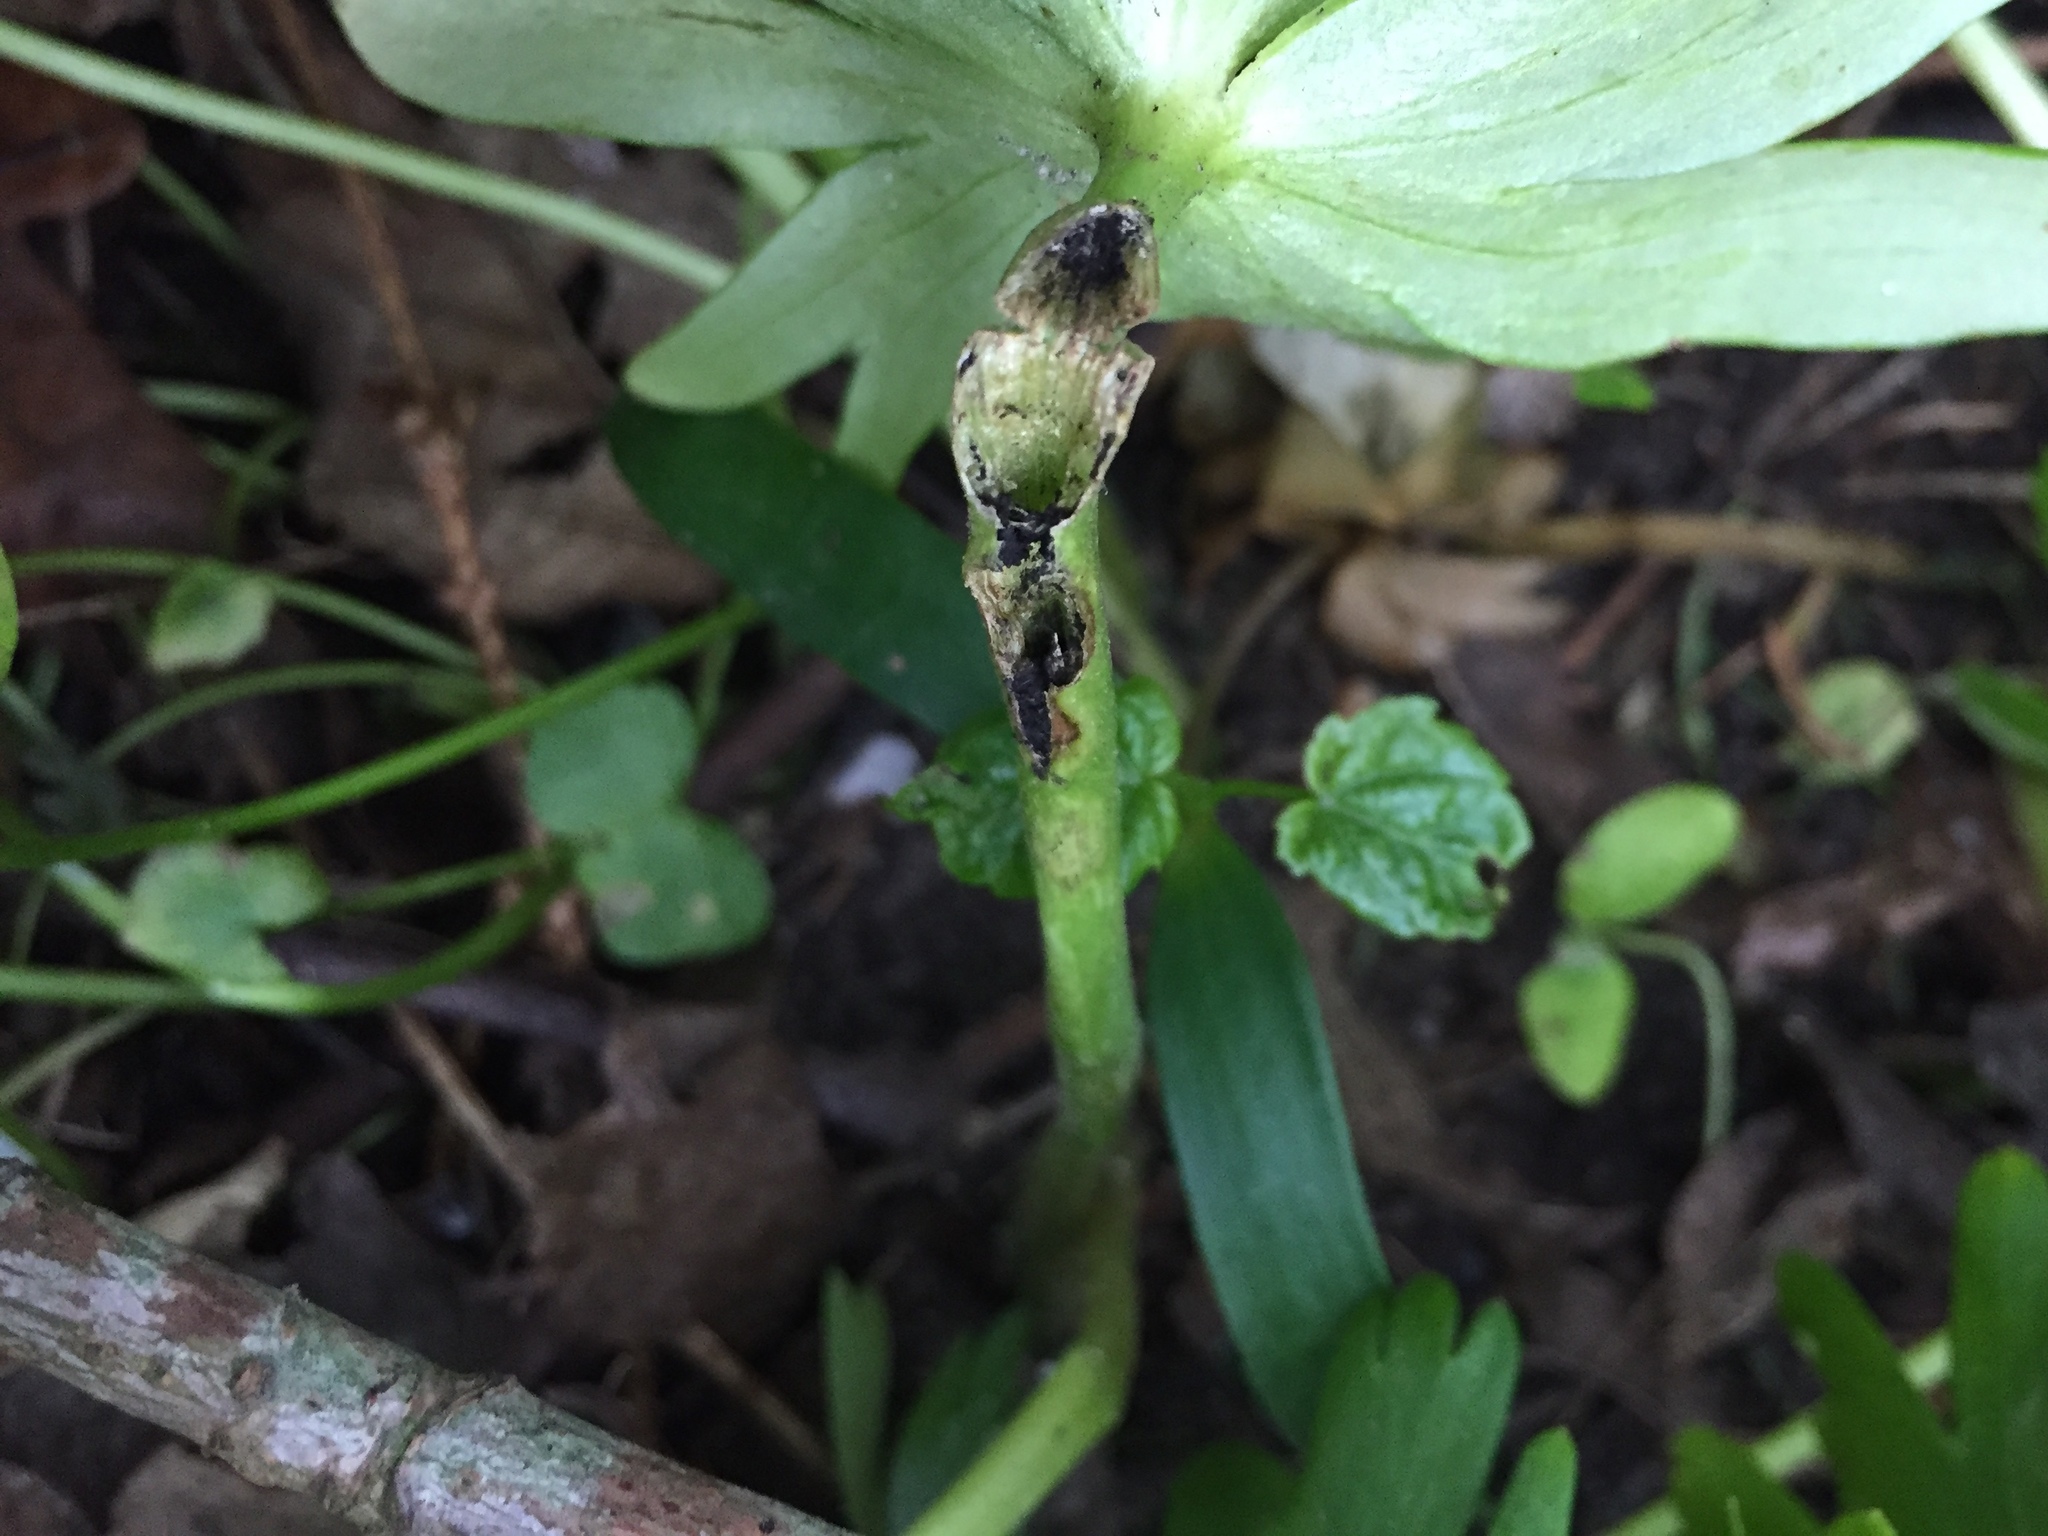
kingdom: Fungi
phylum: Basidiomycota
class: Ustilaginomycetes
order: Urocystidales
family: Urocystidaceae
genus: Urocystis
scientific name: Urocystis eranthidis
